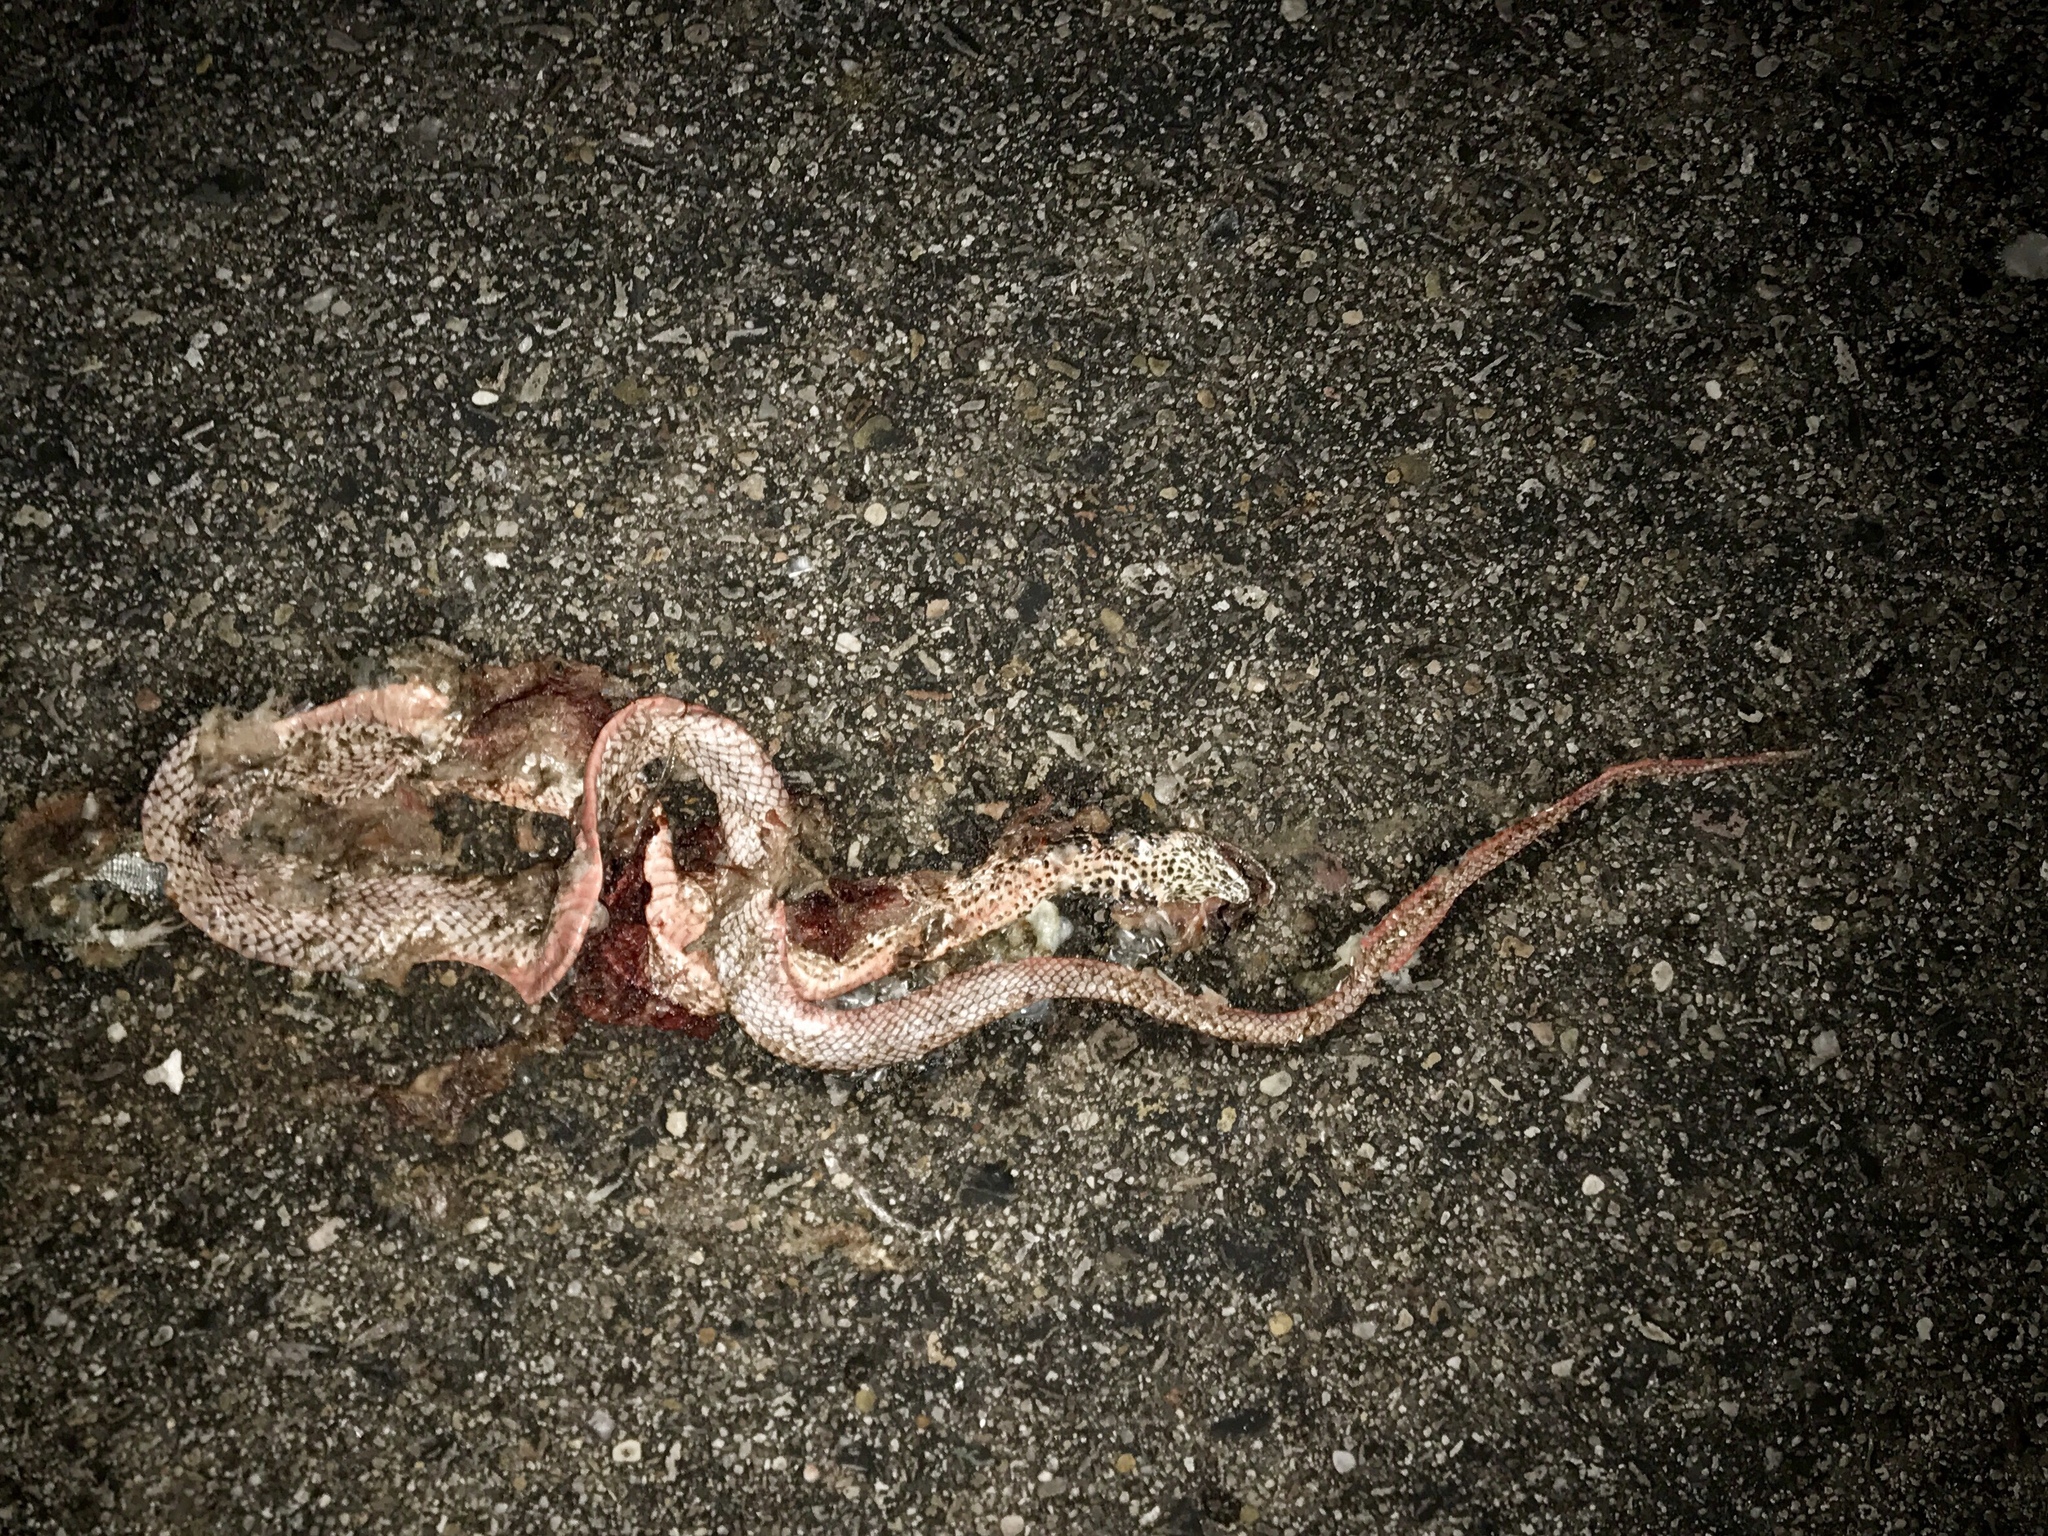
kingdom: Animalia
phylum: Chordata
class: Squamata
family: Colubridae
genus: Masticophis
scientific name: Masticophis flagellum
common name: Coachwhip
